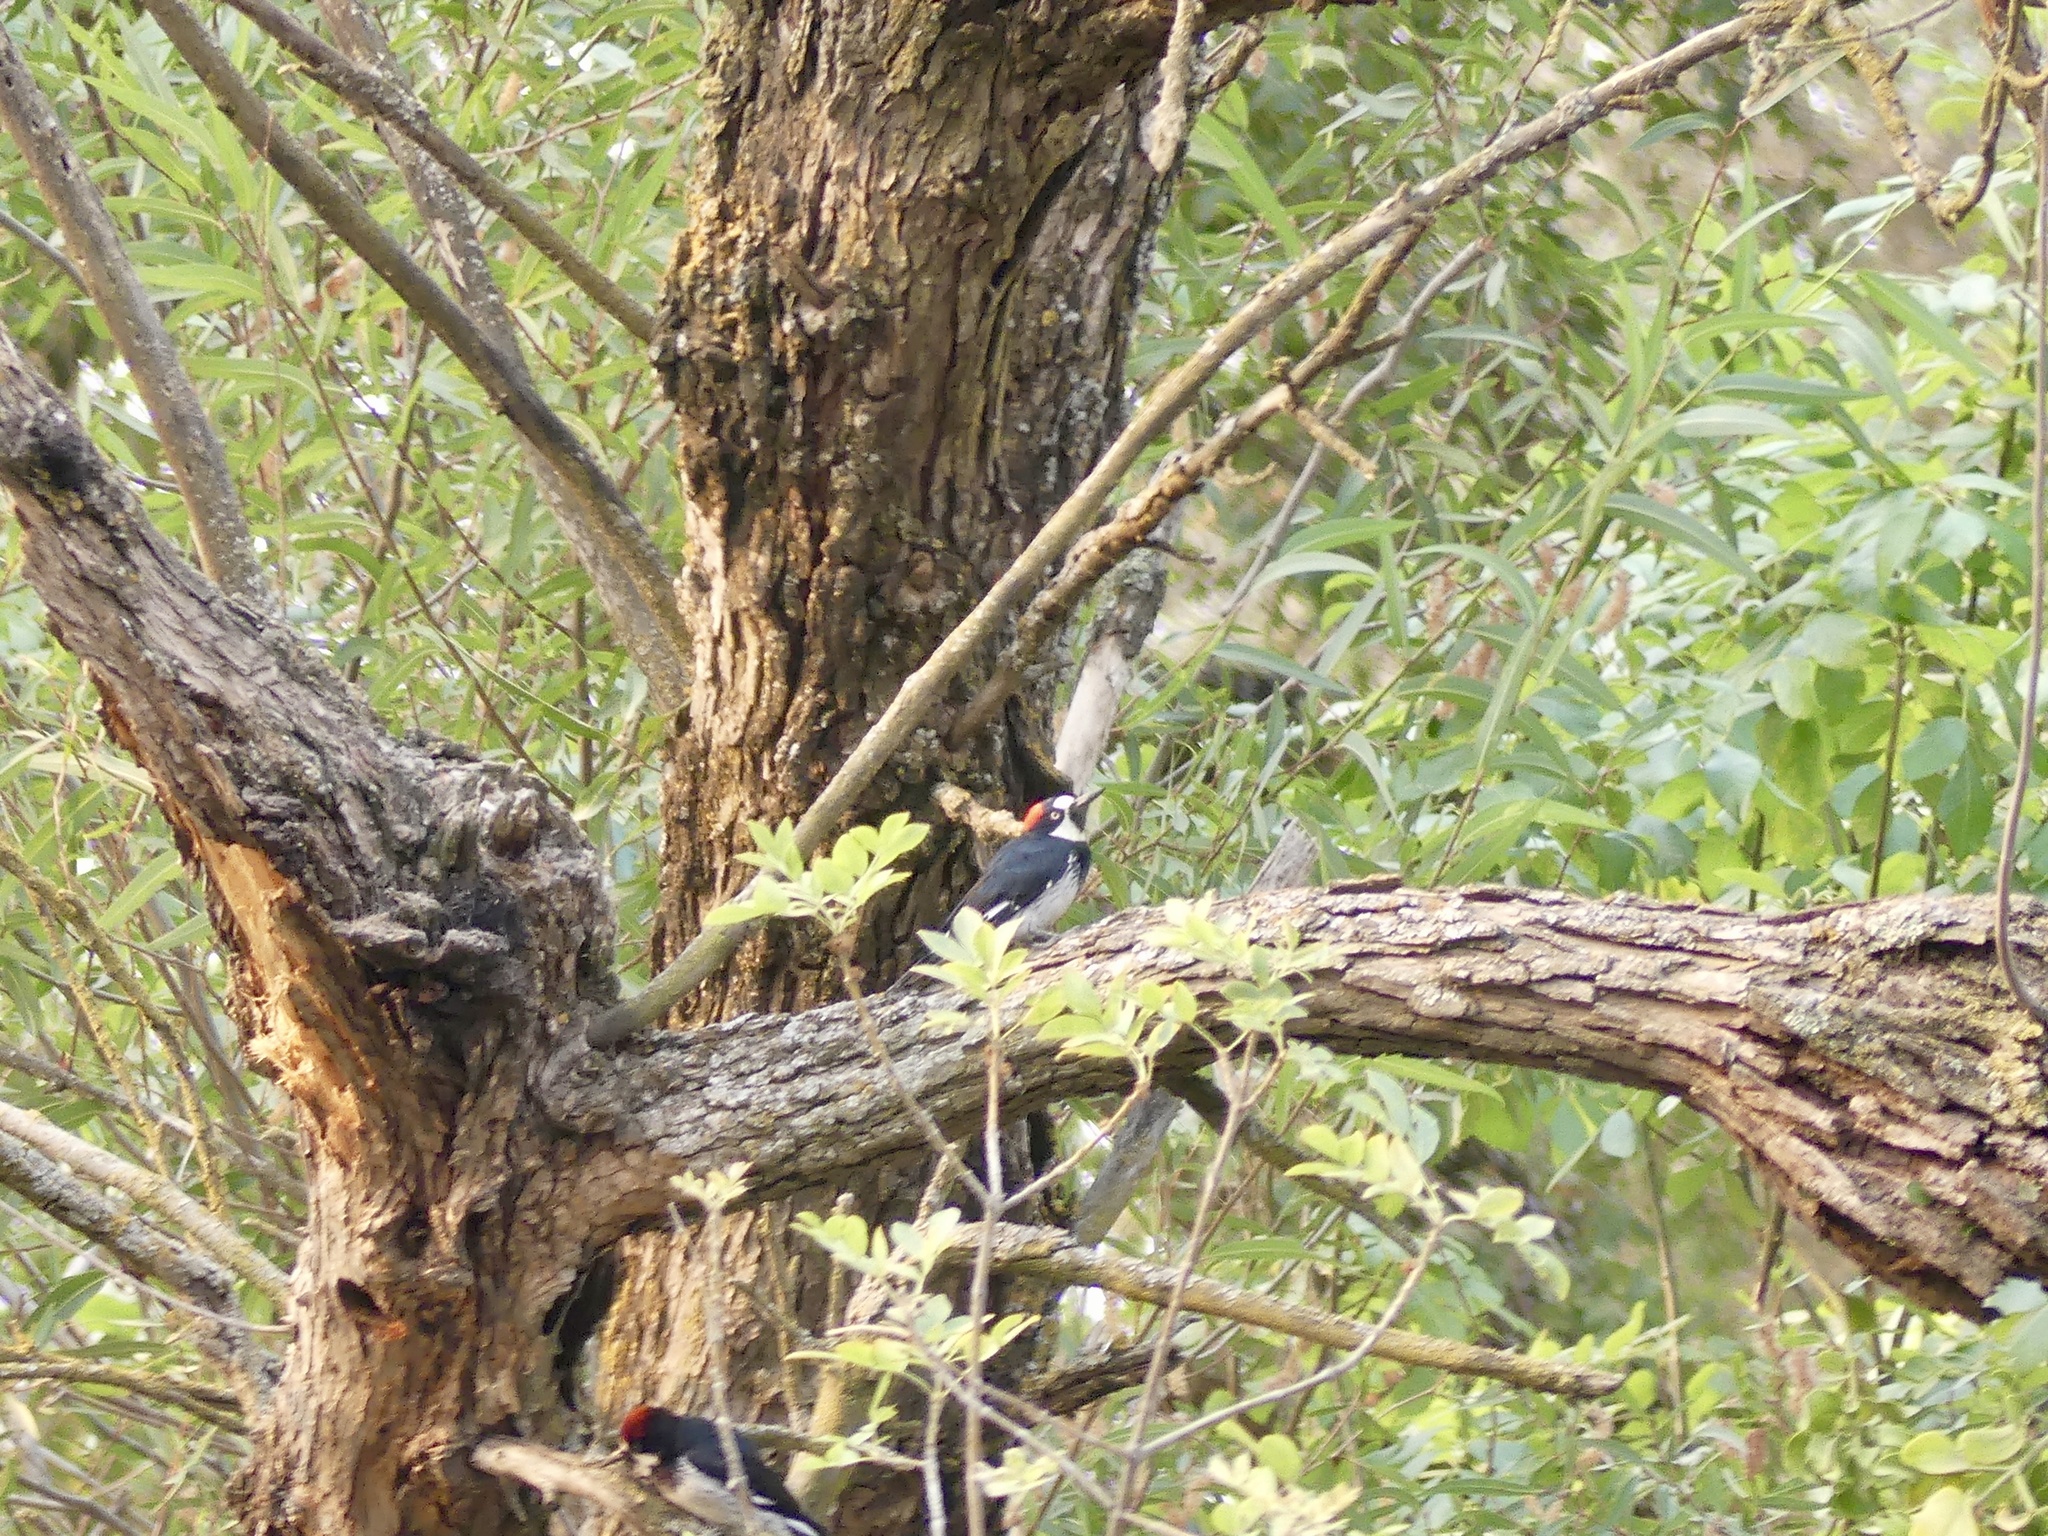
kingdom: Animalia
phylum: Chordata
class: Aves
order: Piciformes
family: Picidae
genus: Melanerpes
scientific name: Melanerpes formicivorus
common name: Acorn woodpecker
